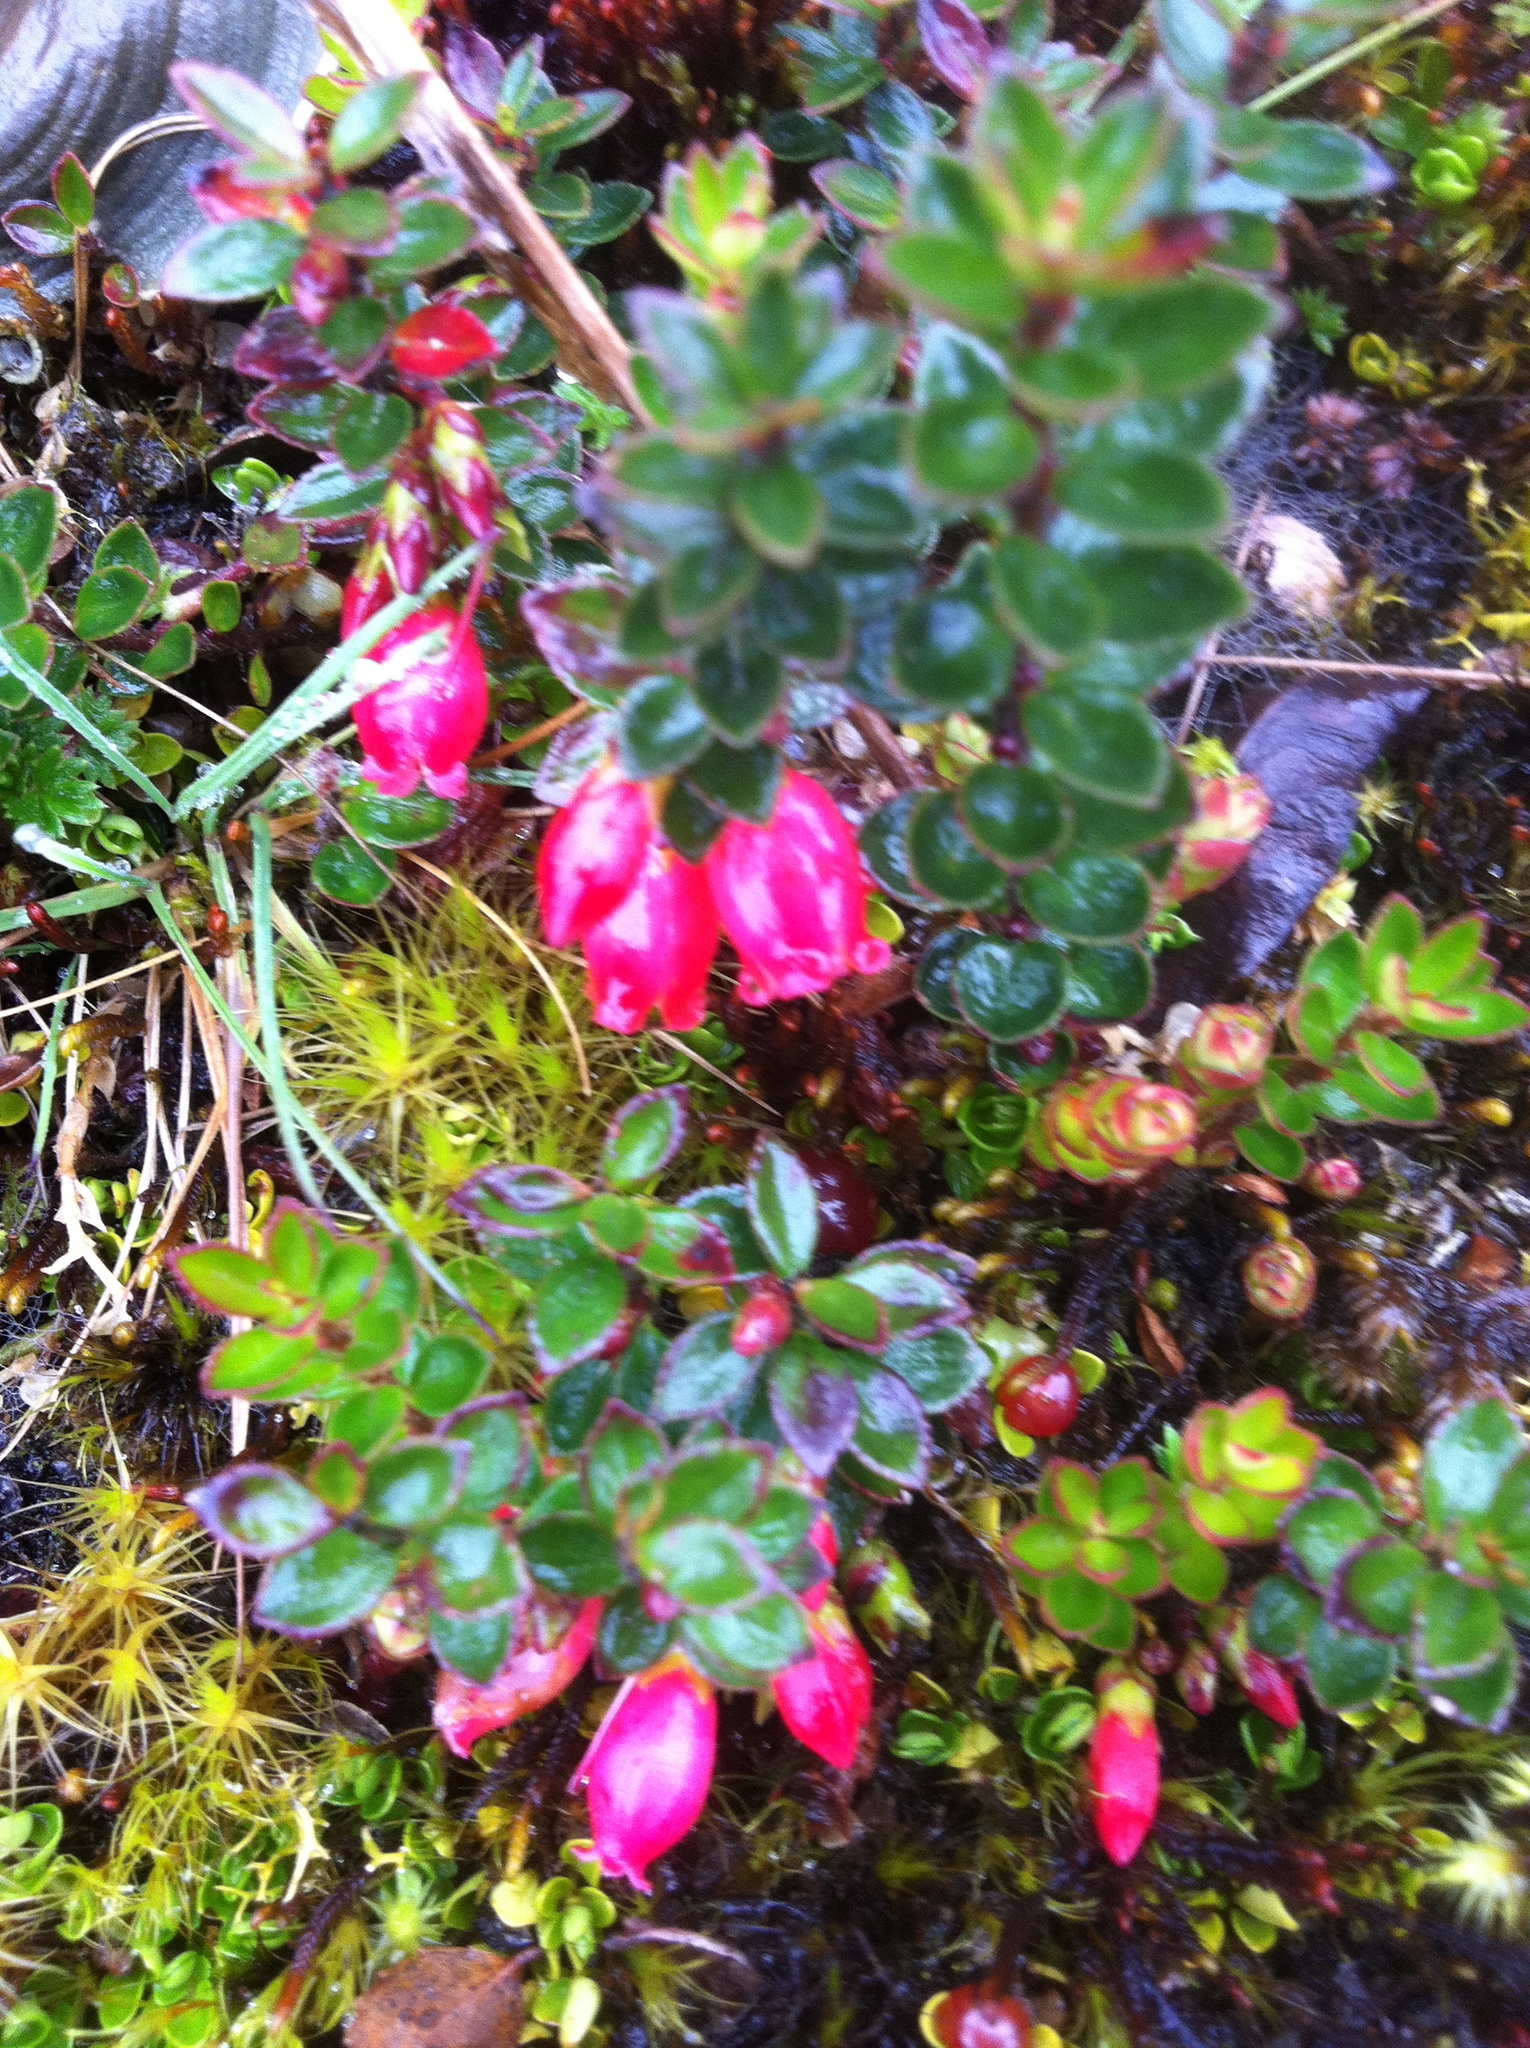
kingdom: Plantae
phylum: Tracheophyta
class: Magnoliopsida
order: Ericales
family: Ericaceae
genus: Disterigma
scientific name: Disterigma empetrifolium
